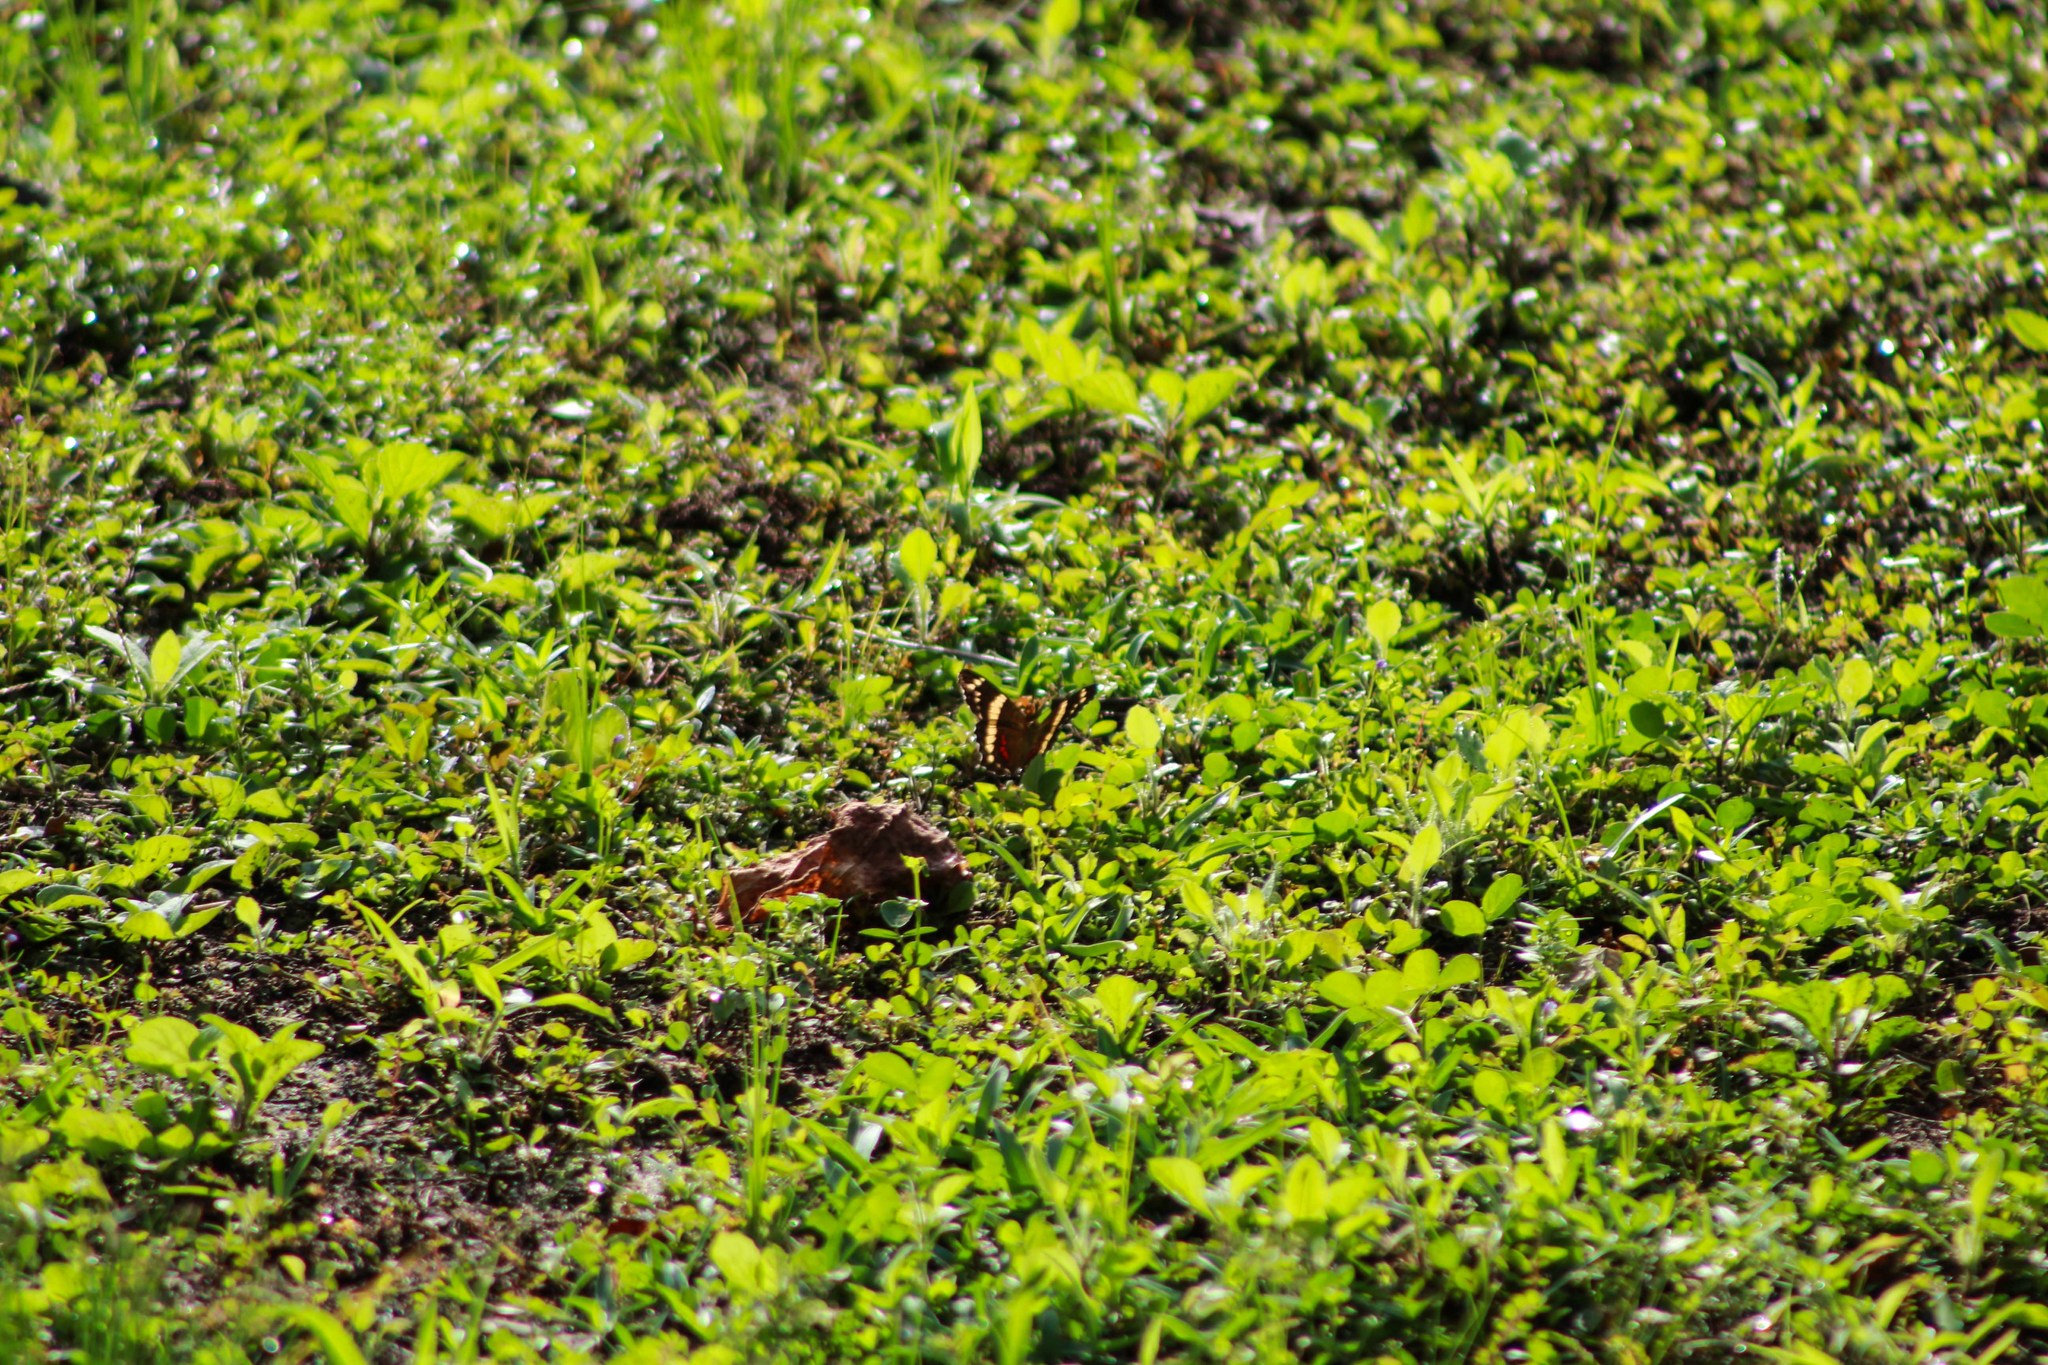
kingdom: Animalia
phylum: Arthropoda
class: Insecta
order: Lepidoptera
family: Nymphalidae
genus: Anartia
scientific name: Anartia fatima
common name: Banded peacock
